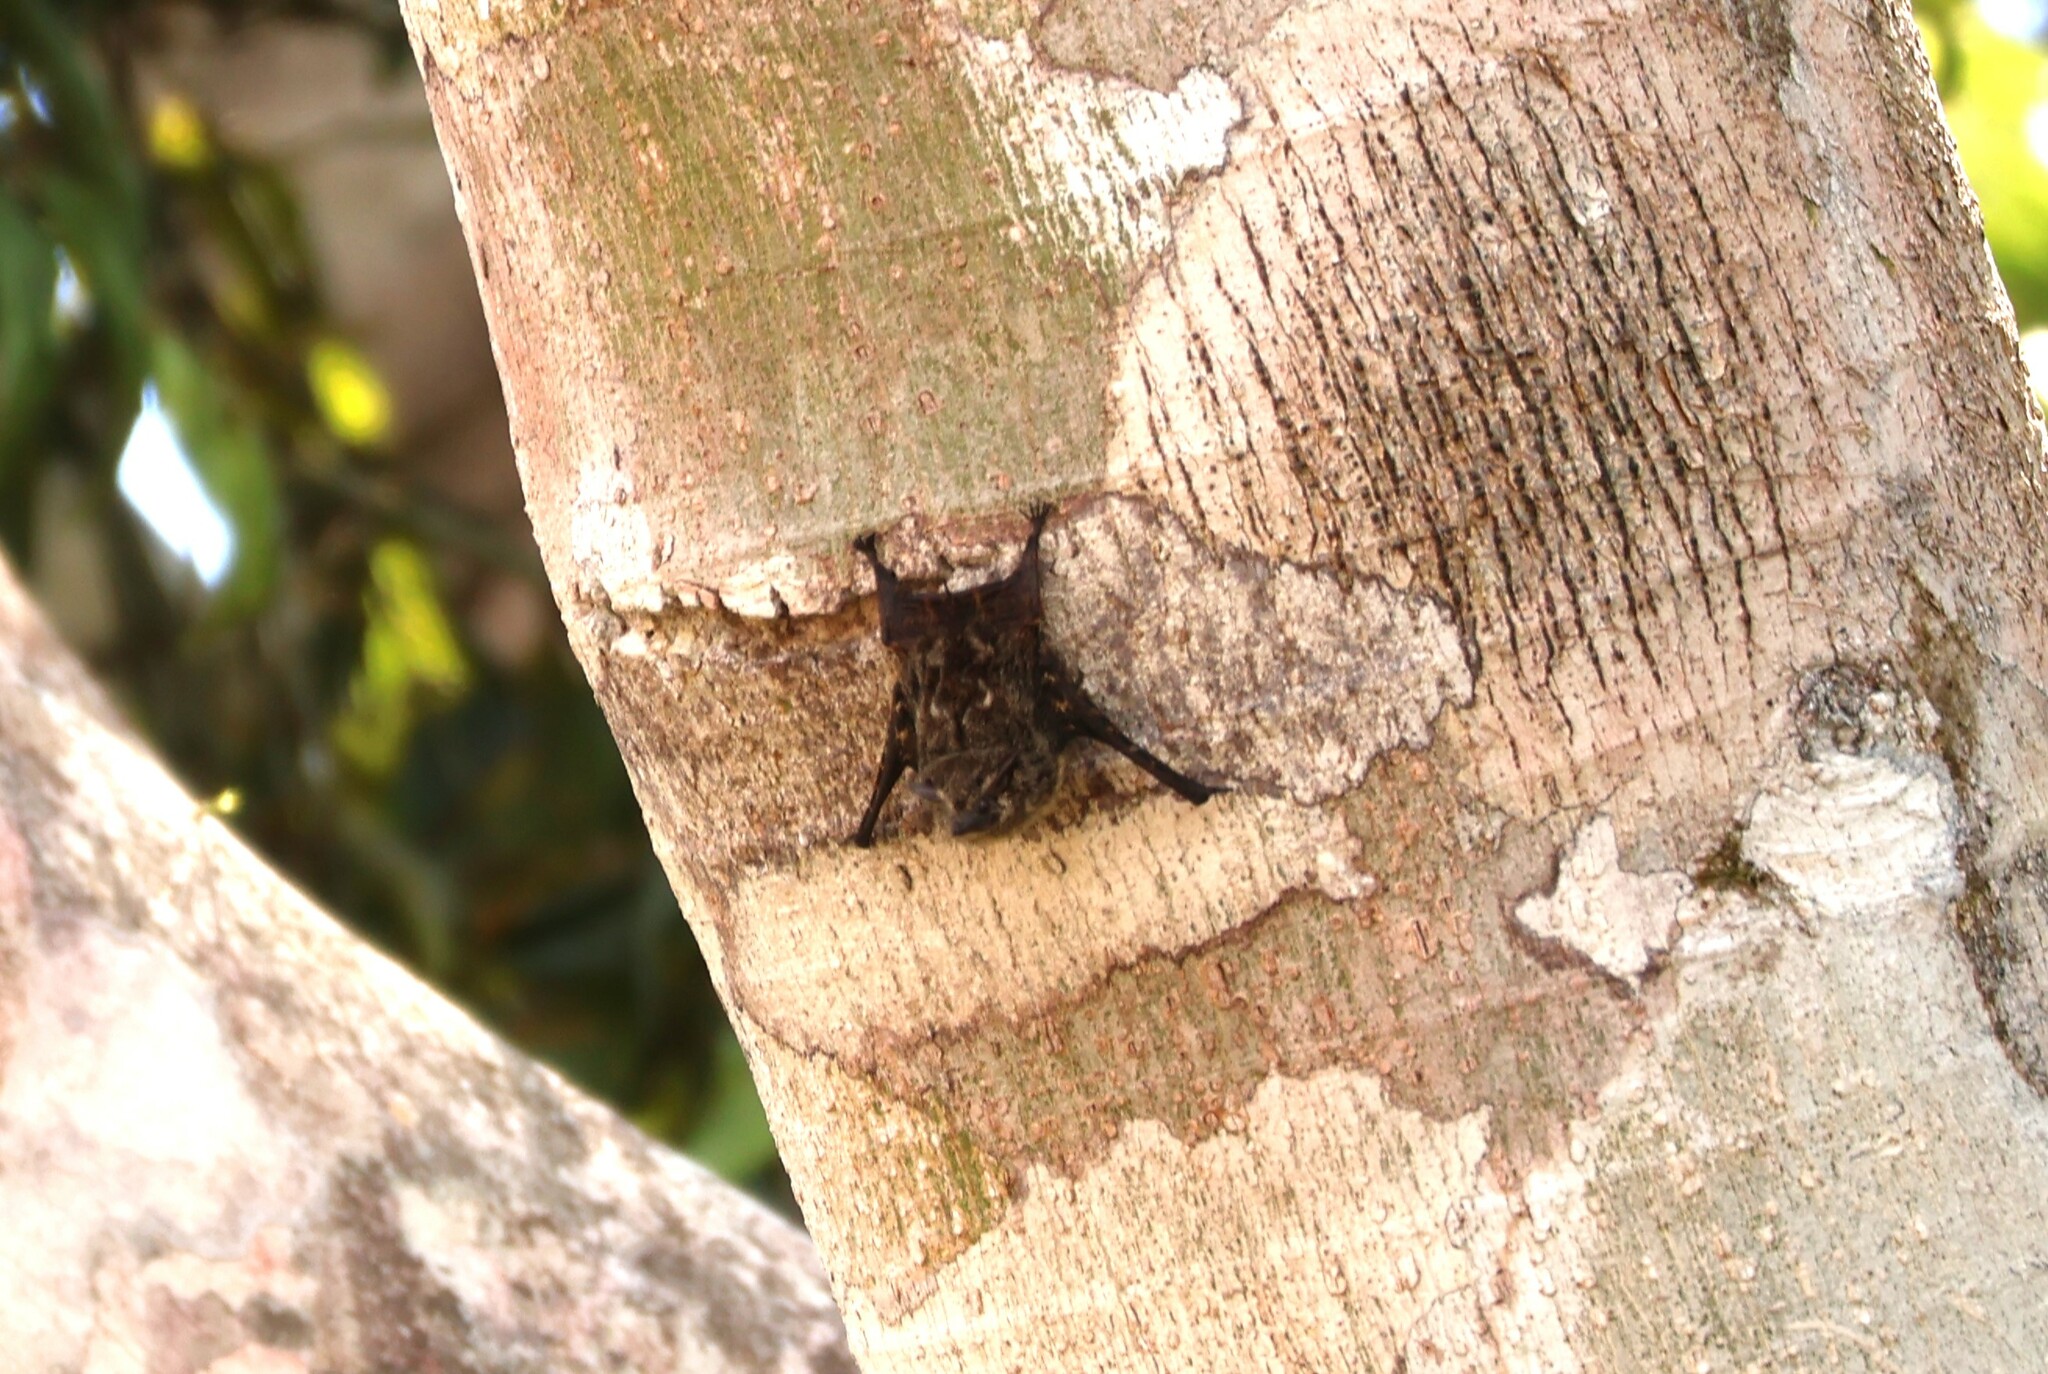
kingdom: Animalia
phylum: Chordata
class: Mammalia
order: Chiroptera
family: Emballonuridae
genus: Rhynchonycteris
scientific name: Rhynchonycteris naso
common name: Proboscis bat
